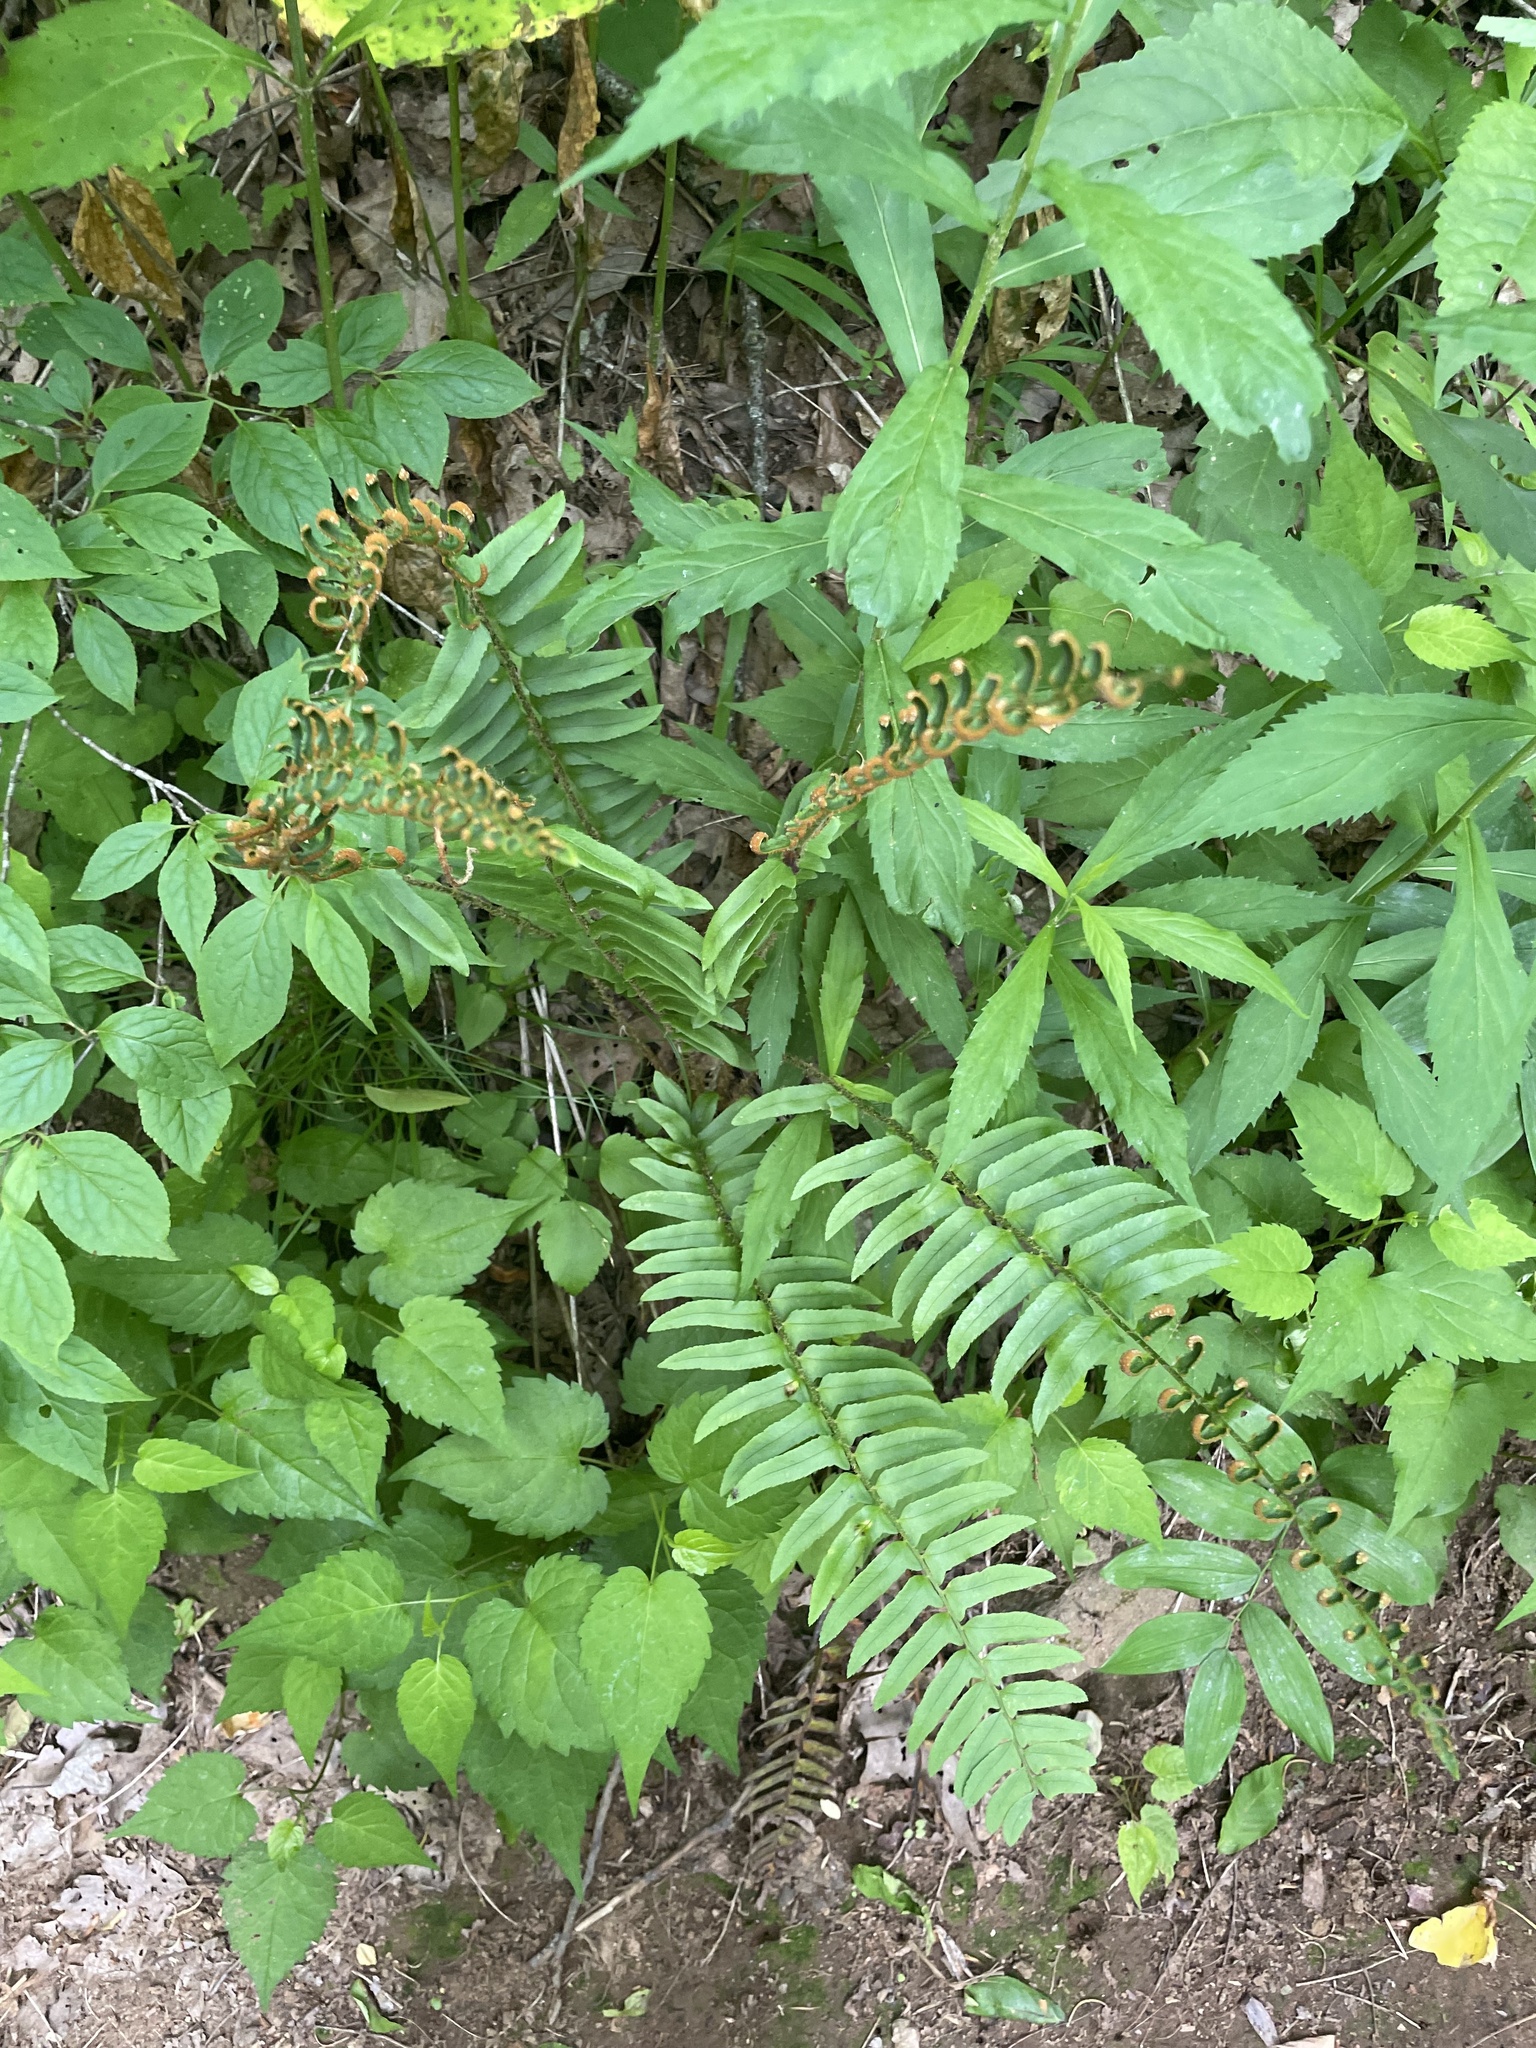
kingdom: Plantae
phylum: Tracheophyta
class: Polypodiopsida
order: Polypodiales
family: Dryopteridaceae
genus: Polystichum
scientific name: Polystichum acrostichoides
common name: Christmas fern
